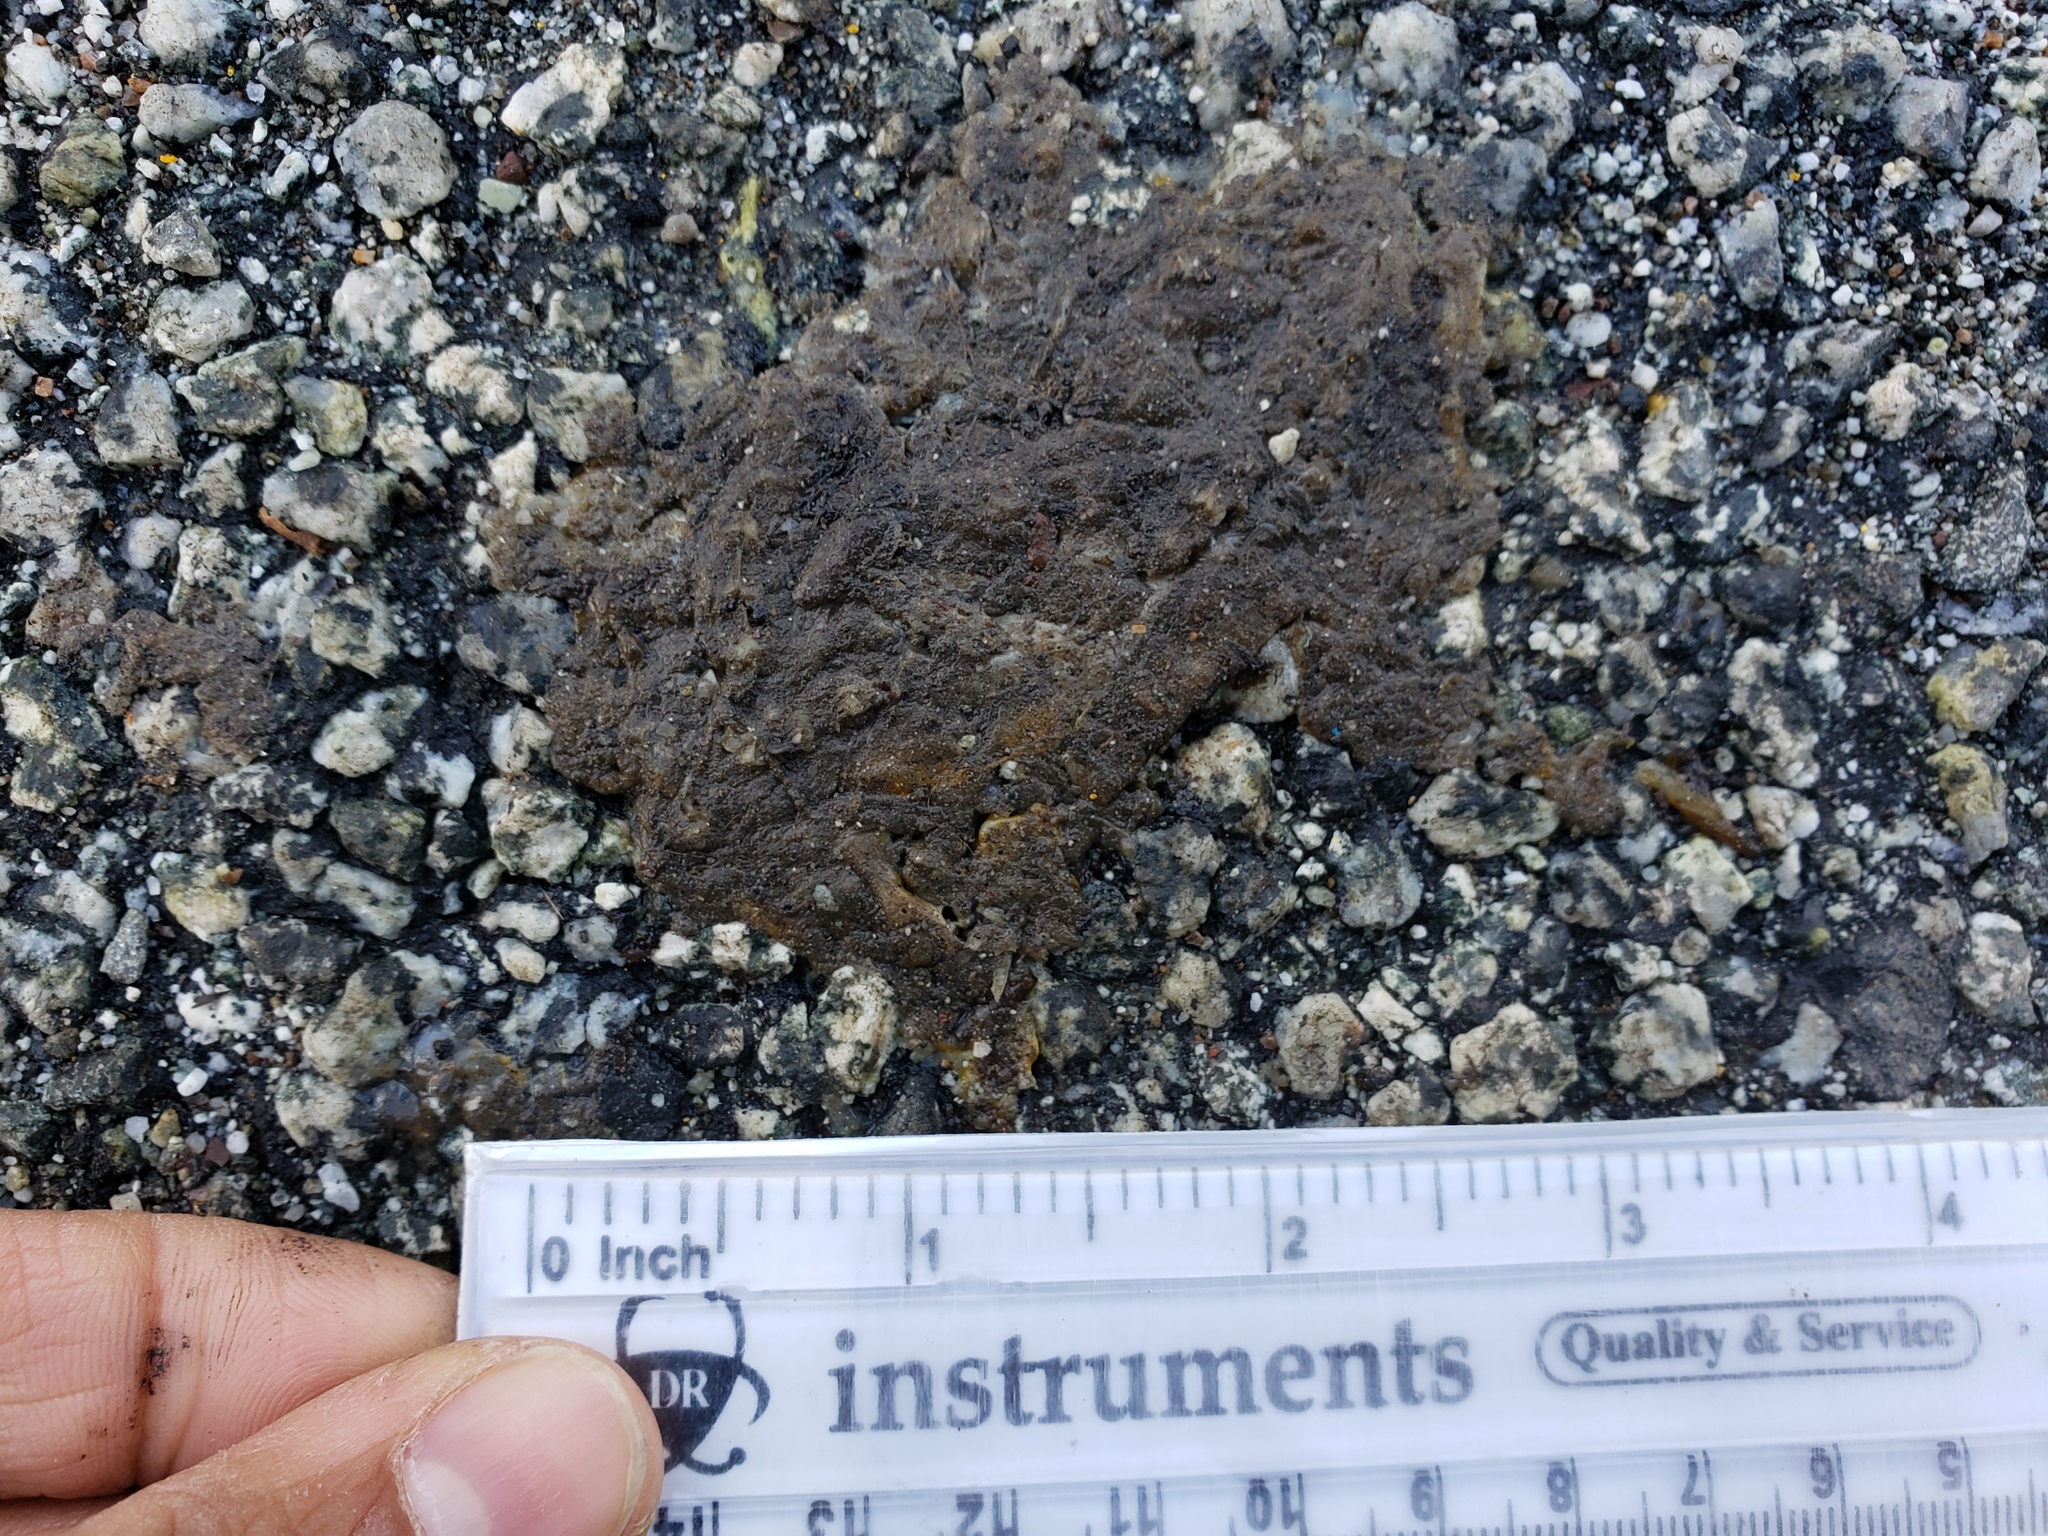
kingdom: Animalia
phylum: Chordata
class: Amphibia
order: Caudata
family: Salamandridae
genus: Taricha
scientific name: Taricha
